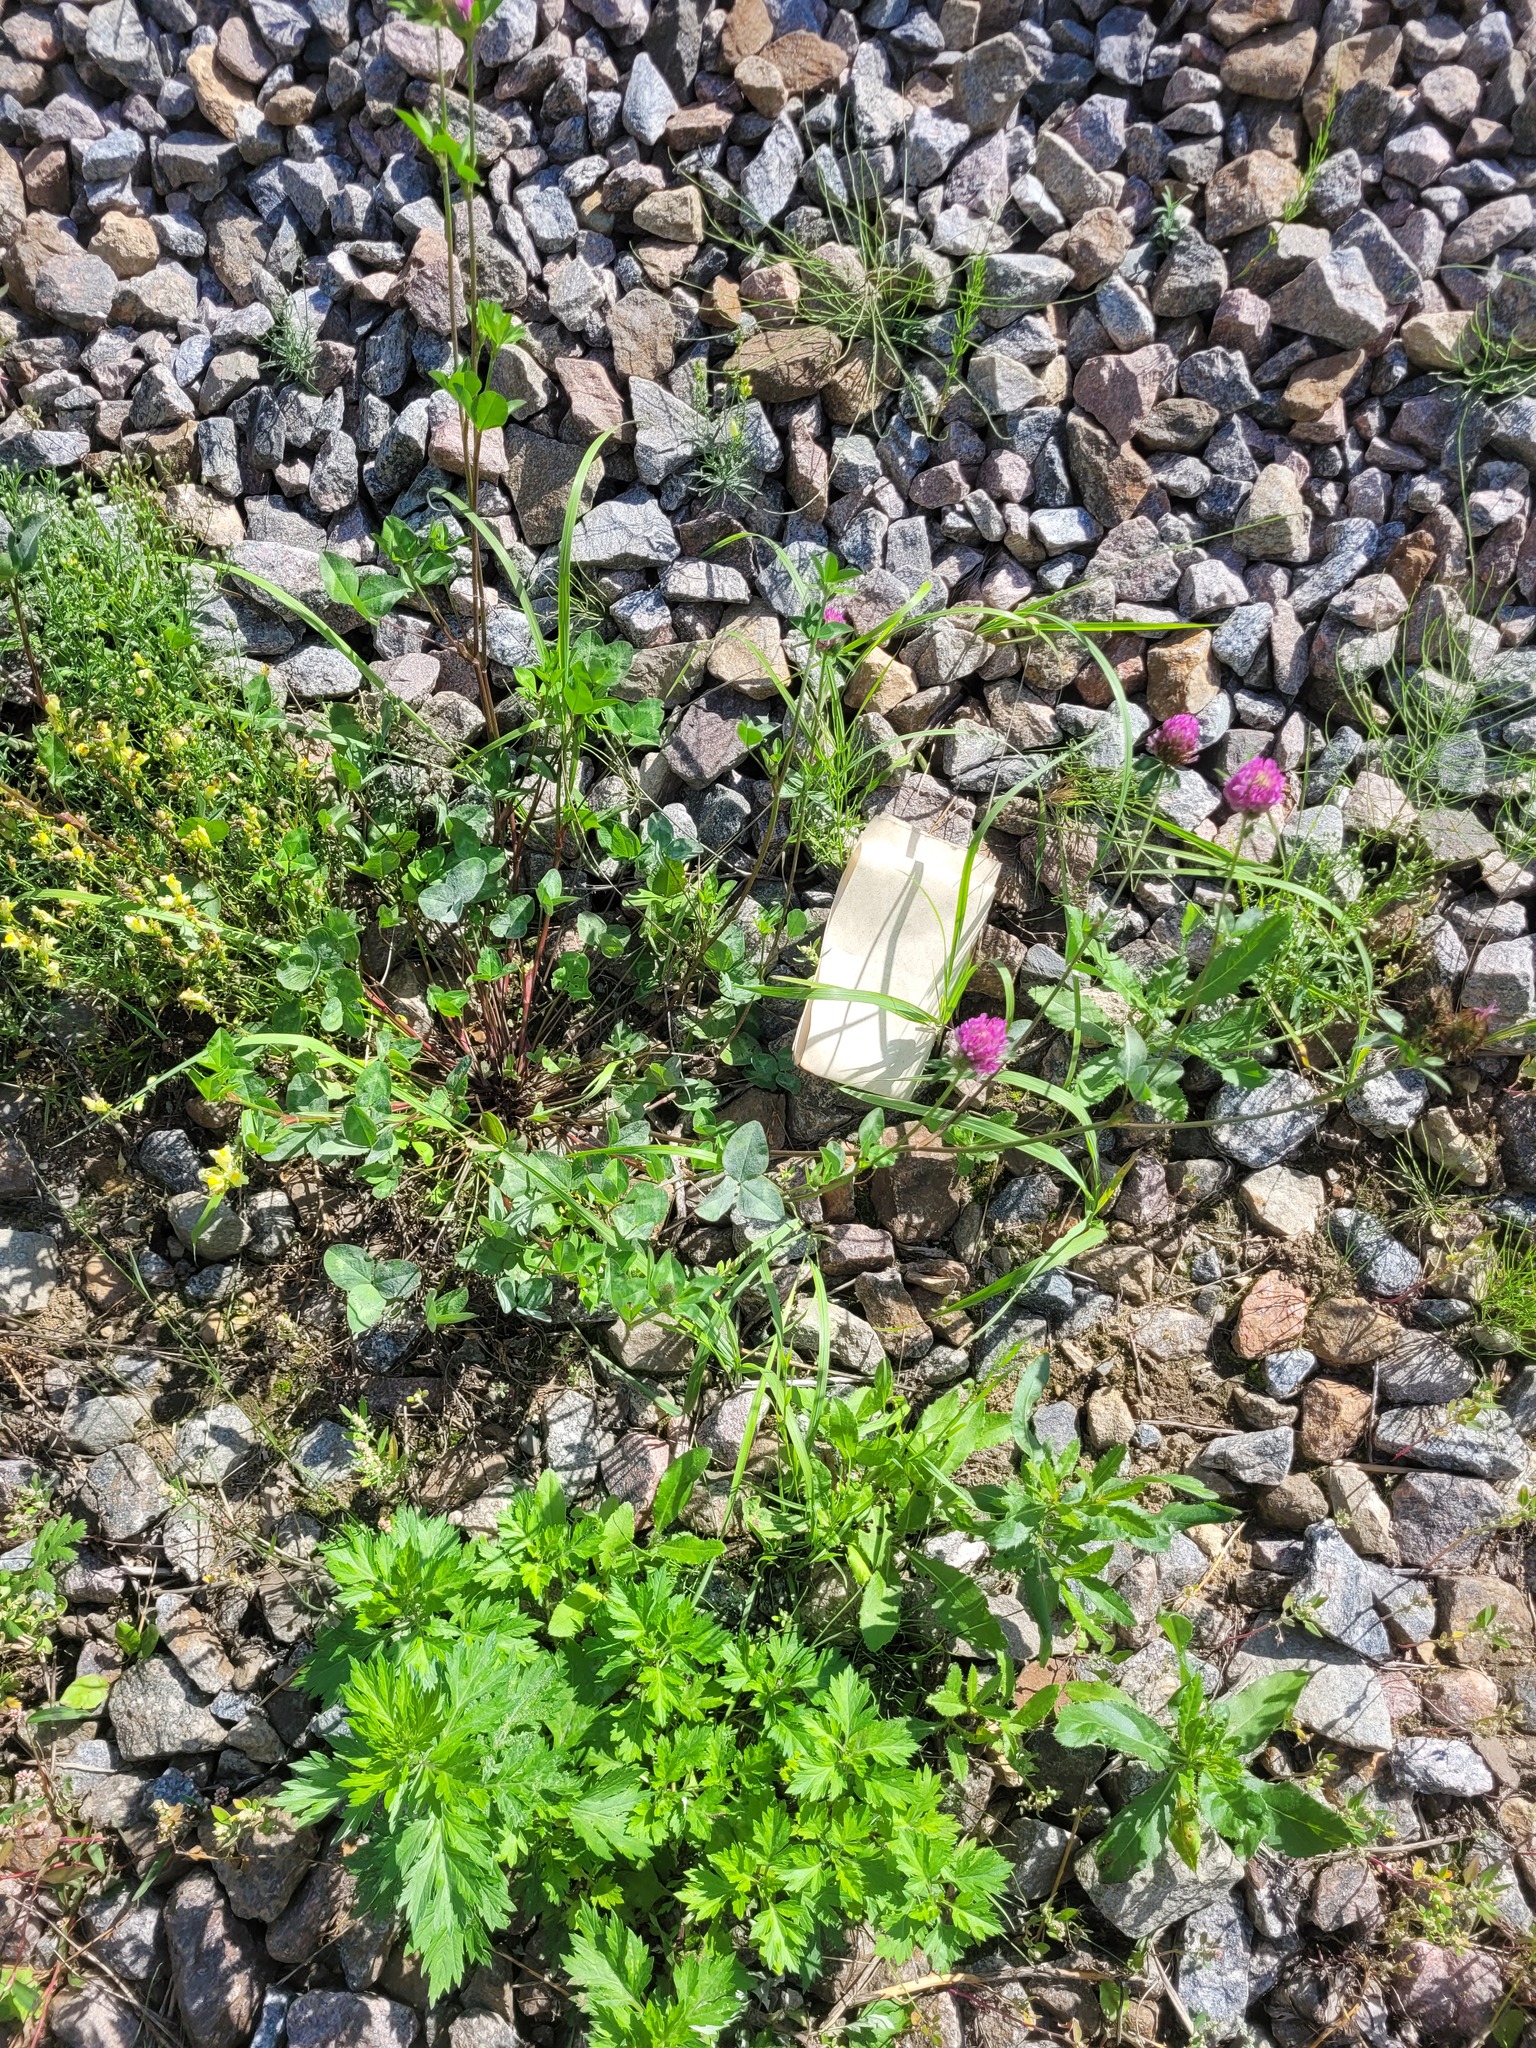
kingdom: Plantae
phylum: Tracheophyta
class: Magnoliopsida
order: Fabales
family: Fabaceae
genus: Trifolium
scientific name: Trifolium pratense
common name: Red clover
